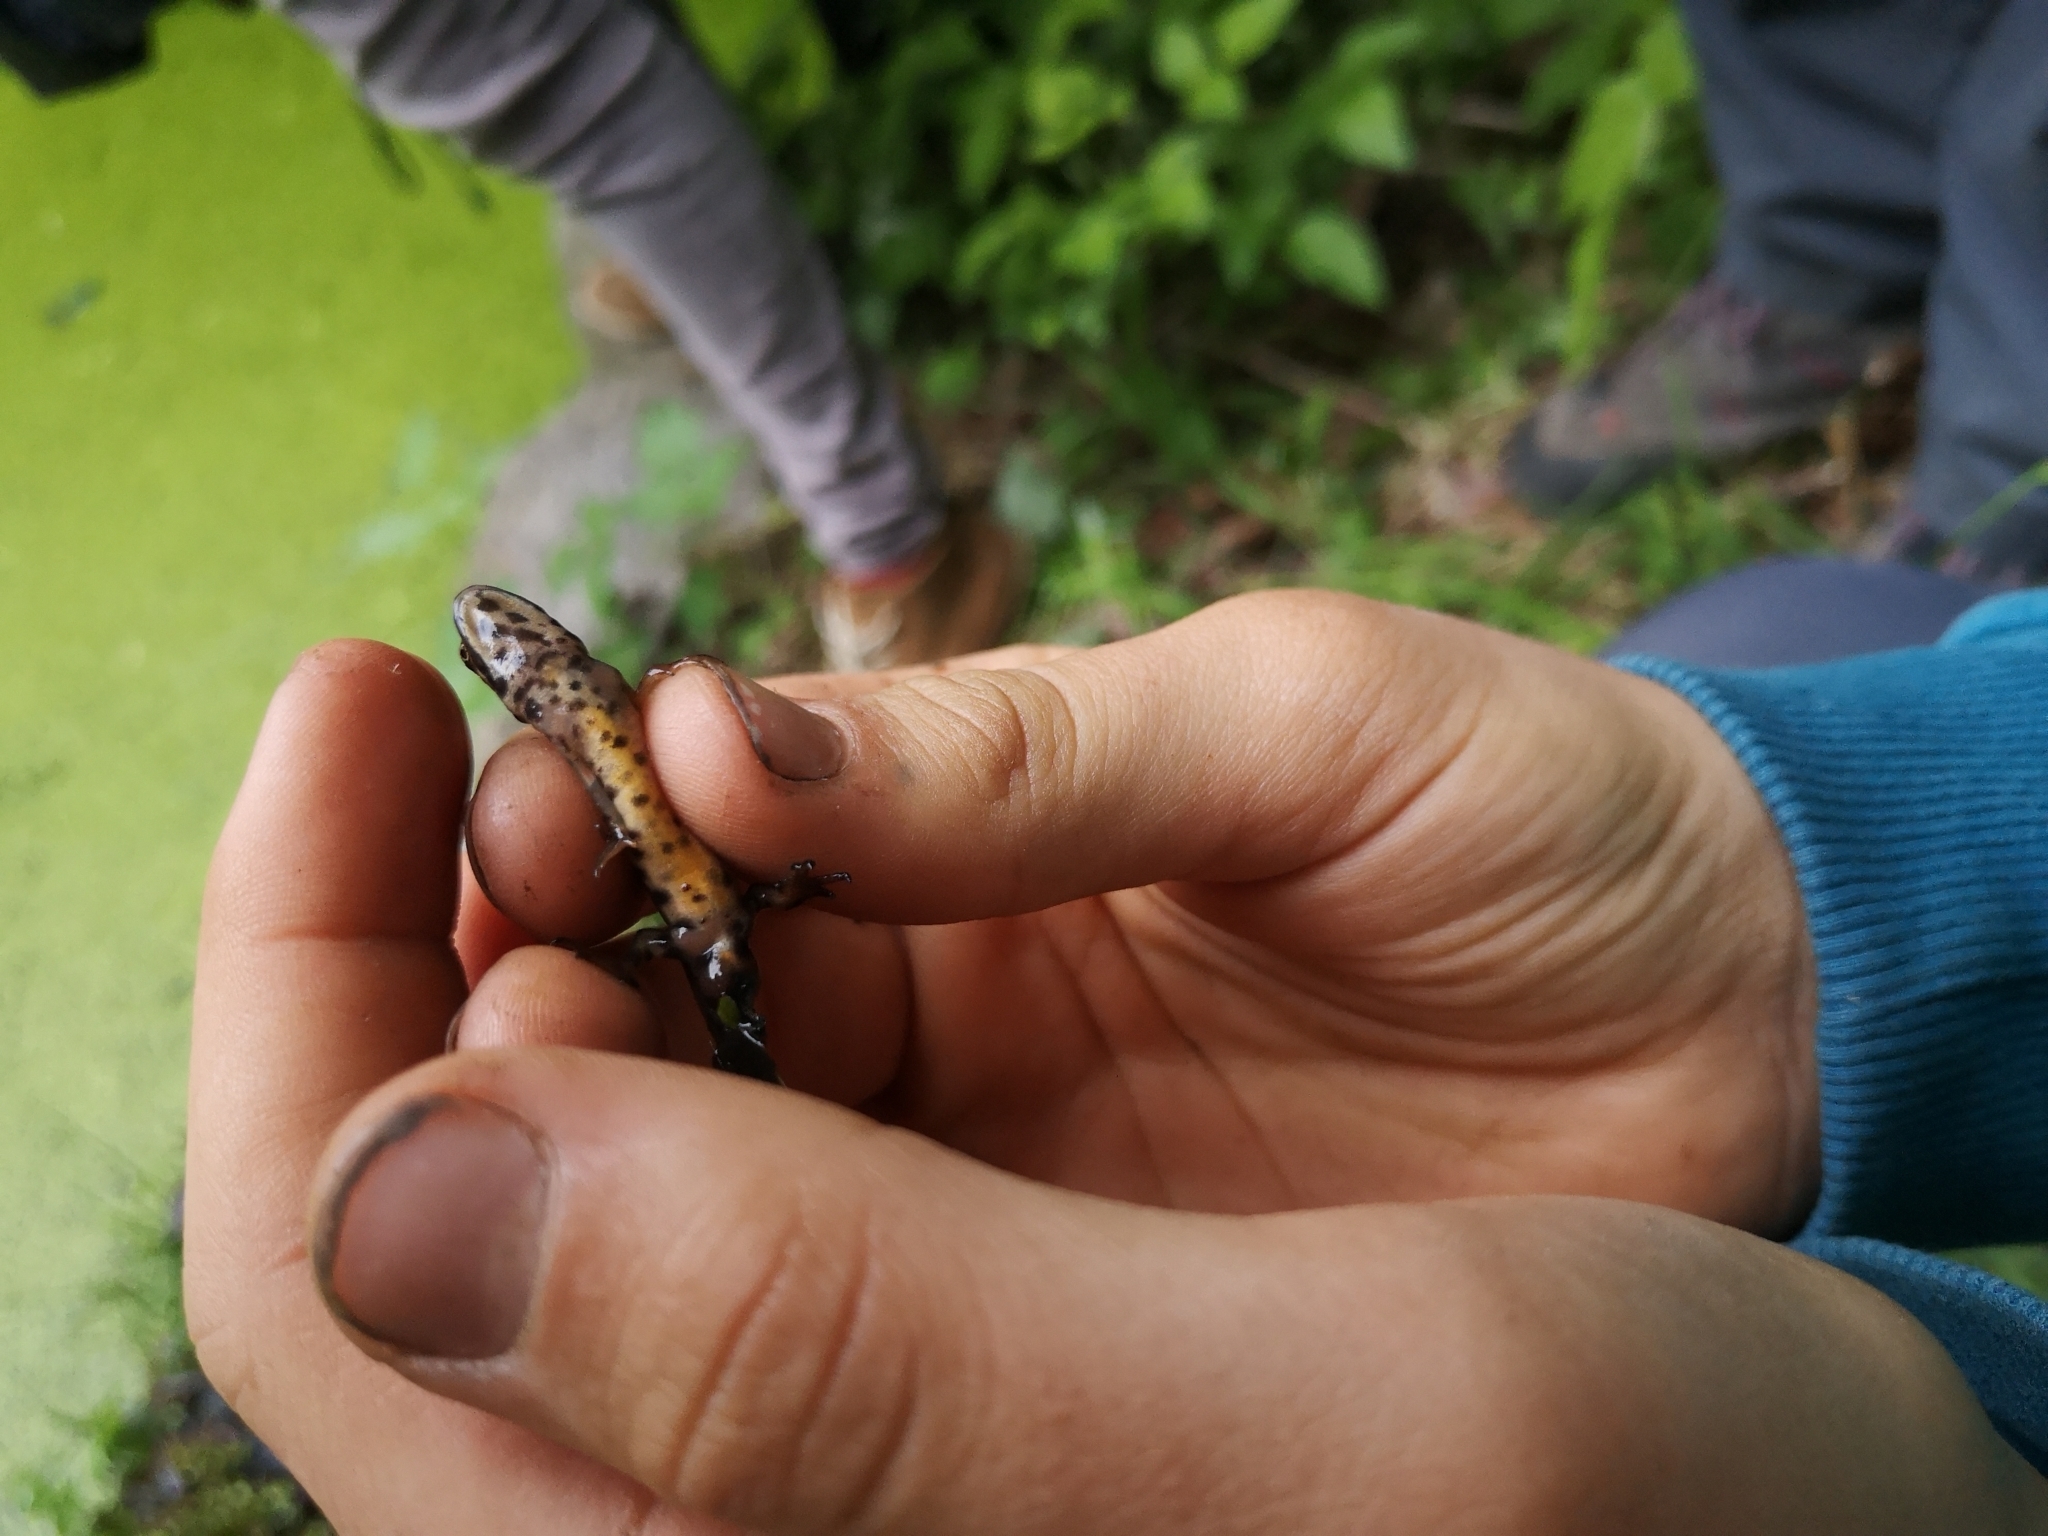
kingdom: Animalia
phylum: Chordata
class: Amphibia
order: Caudata
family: Salamandridae
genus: Lissotriton
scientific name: Lissotriton vulgaris
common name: Smooth newt
